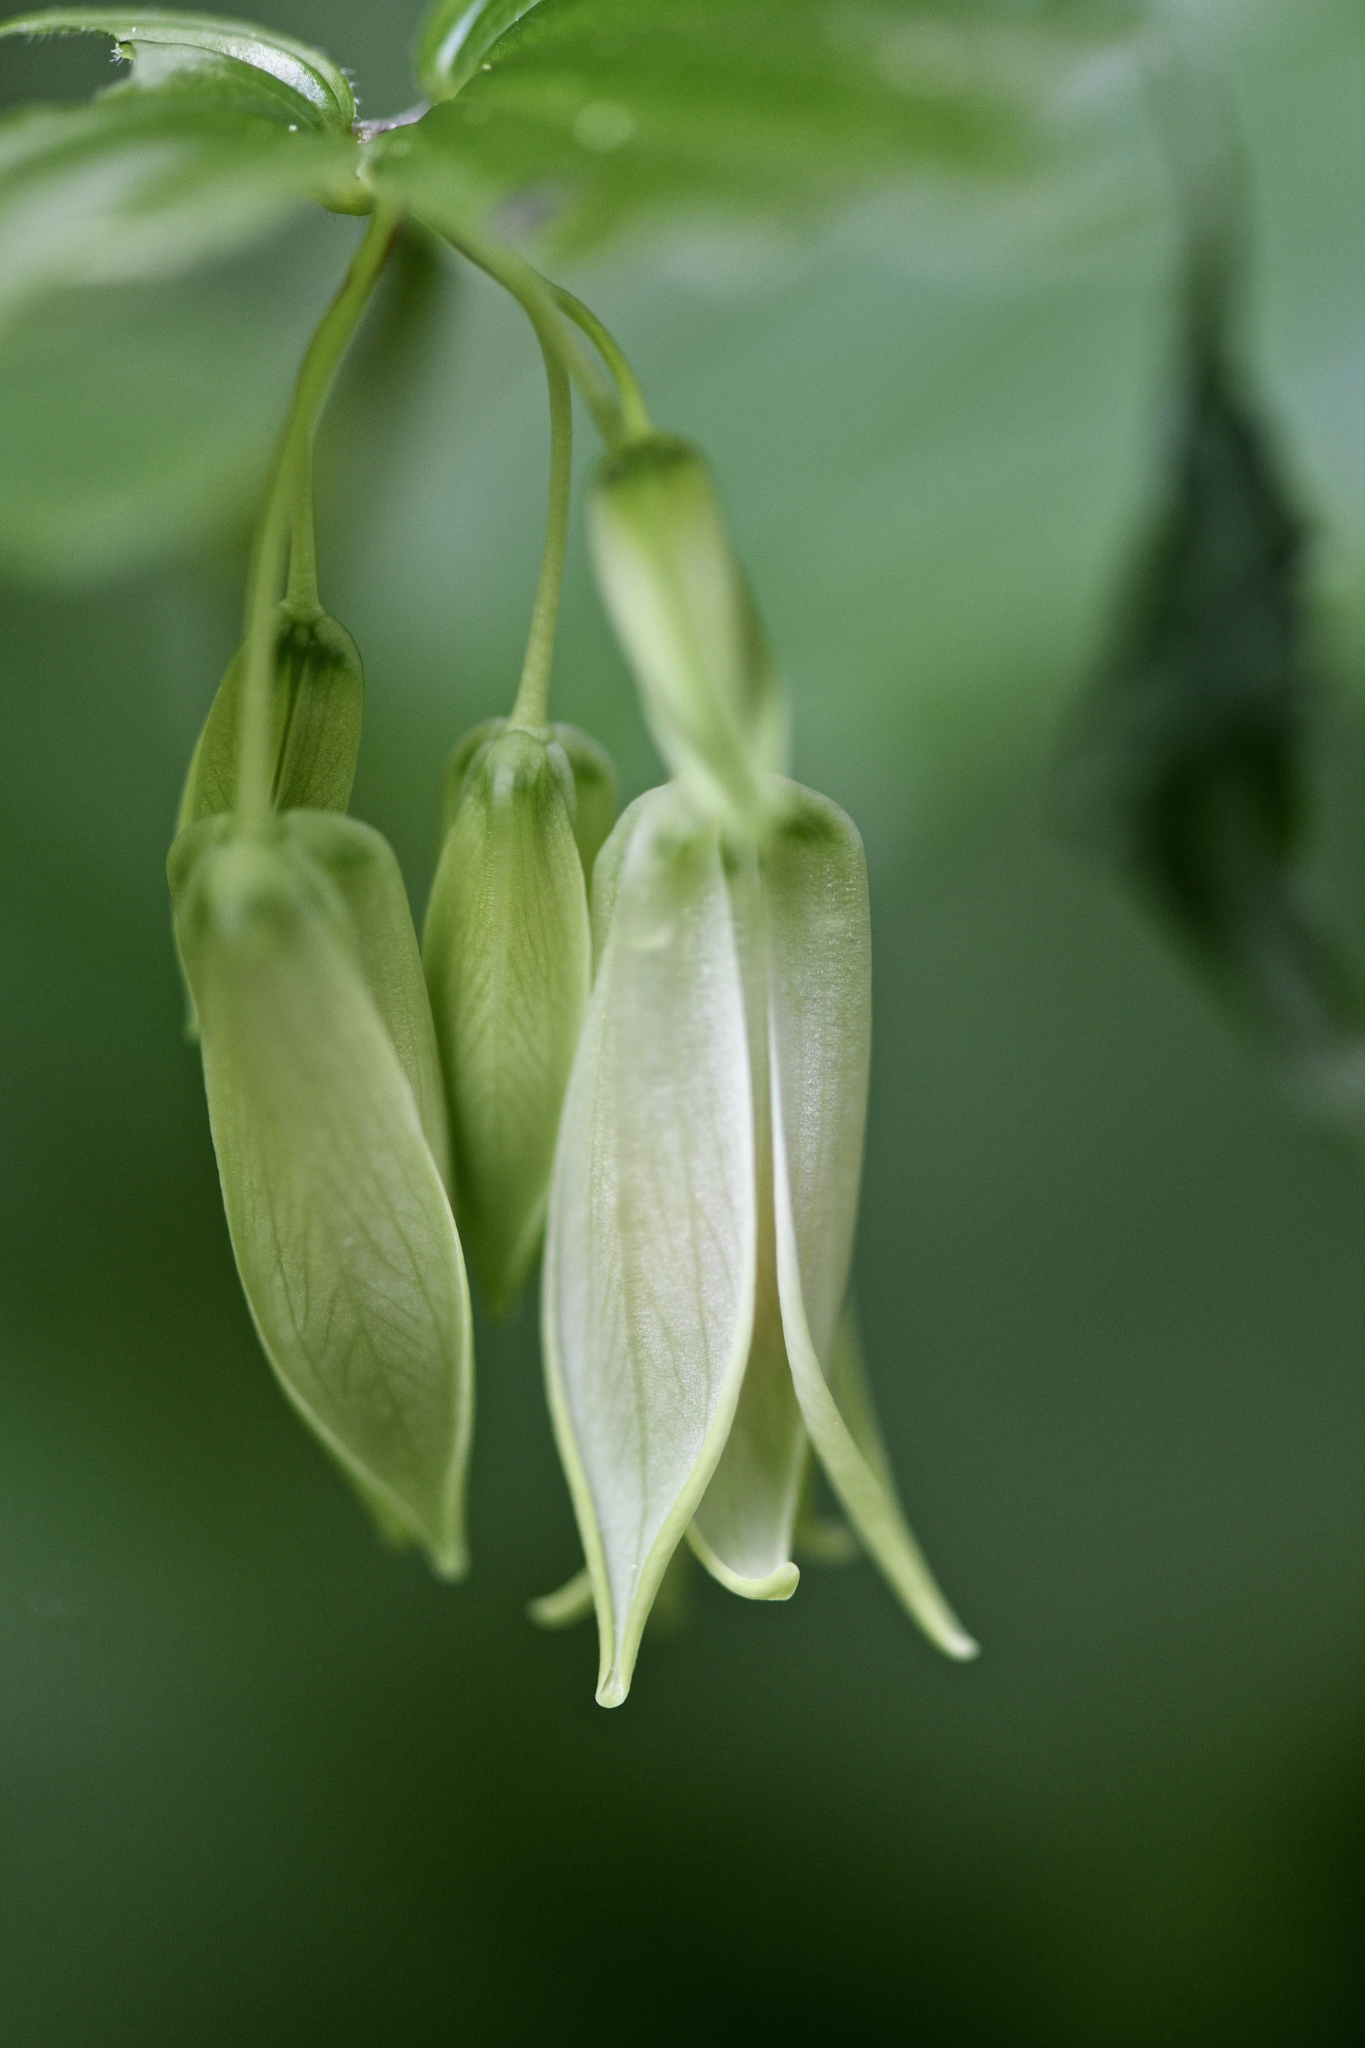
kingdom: Plantae
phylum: Tracheophyta
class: Liliopsida
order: Liliales
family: Liliaceae
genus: Prosartes
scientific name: Prosartes smithii
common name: Fairy-lantern
